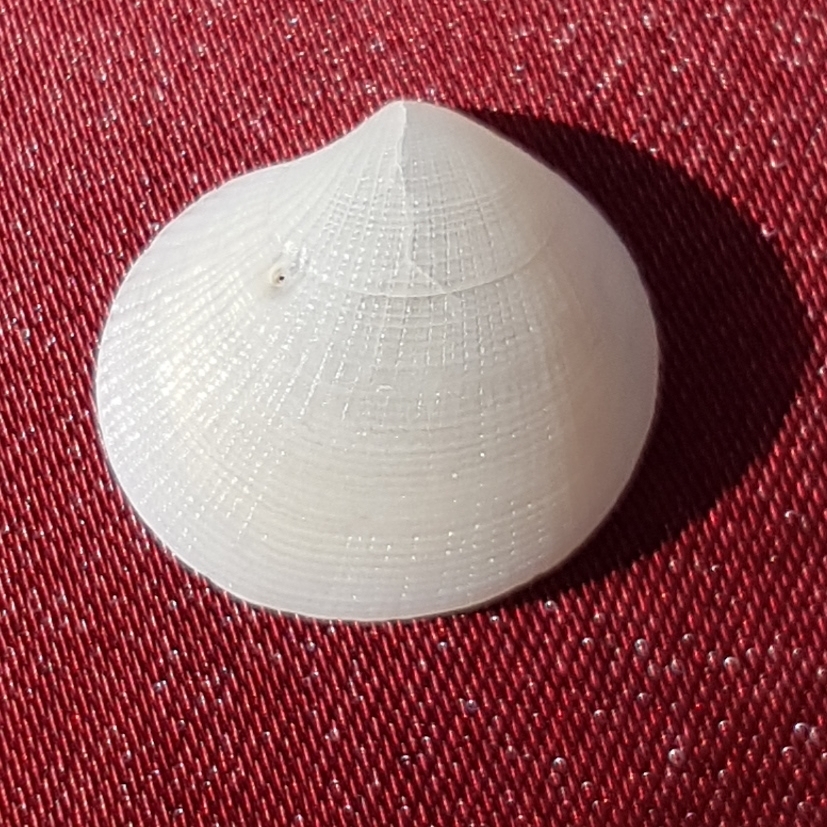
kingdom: Animalia
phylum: Mollusca
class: Bivalvia
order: Lucinida
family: Lucinidae
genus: Ctena
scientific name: Ctena decussata
